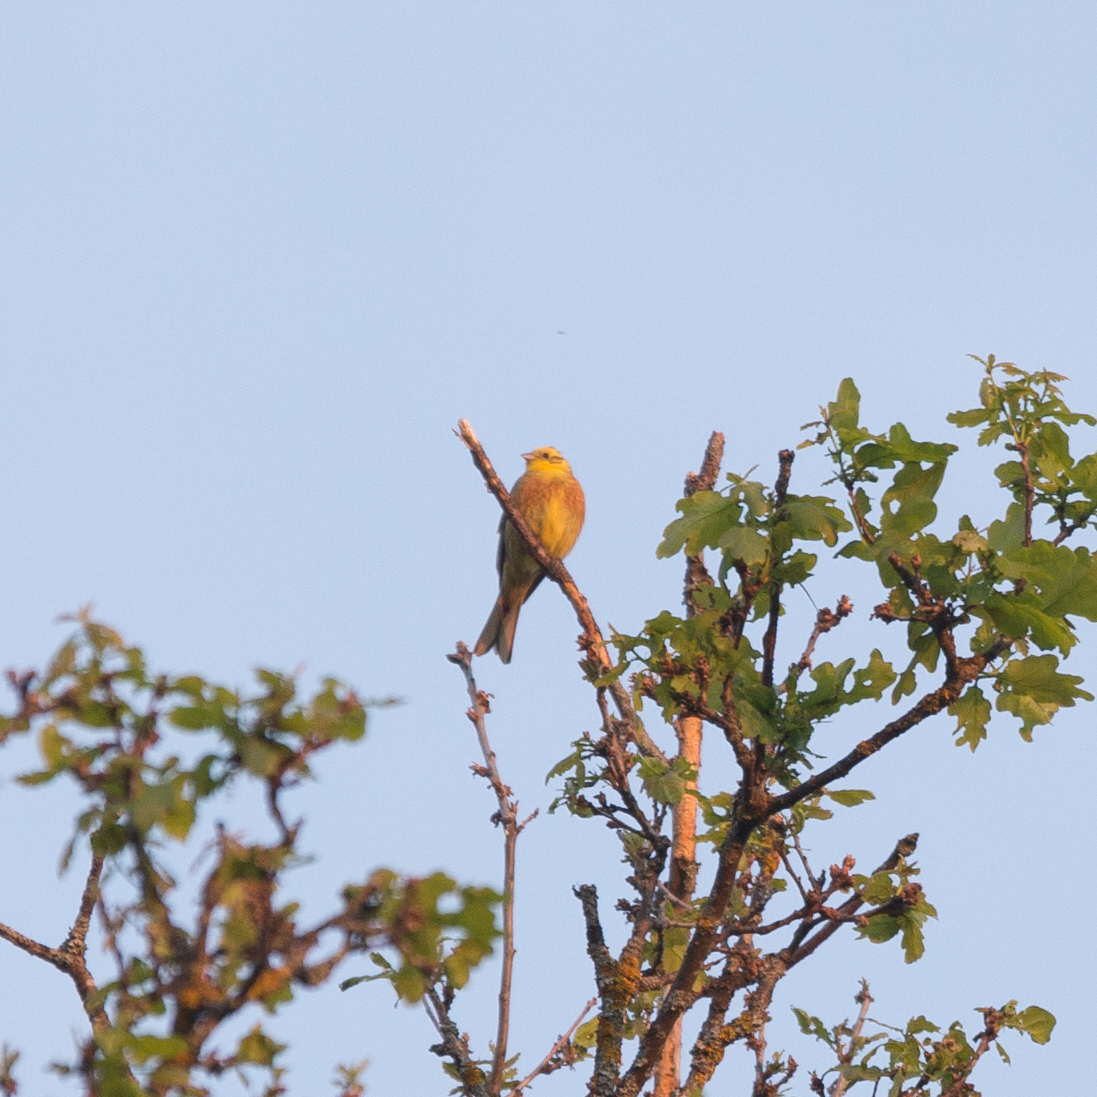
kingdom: Animalia
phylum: Chordata
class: Aves
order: Passeriformes
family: Emberizidae
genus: Emberiza
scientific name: Emberiza citrinella
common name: Yellowhammer
